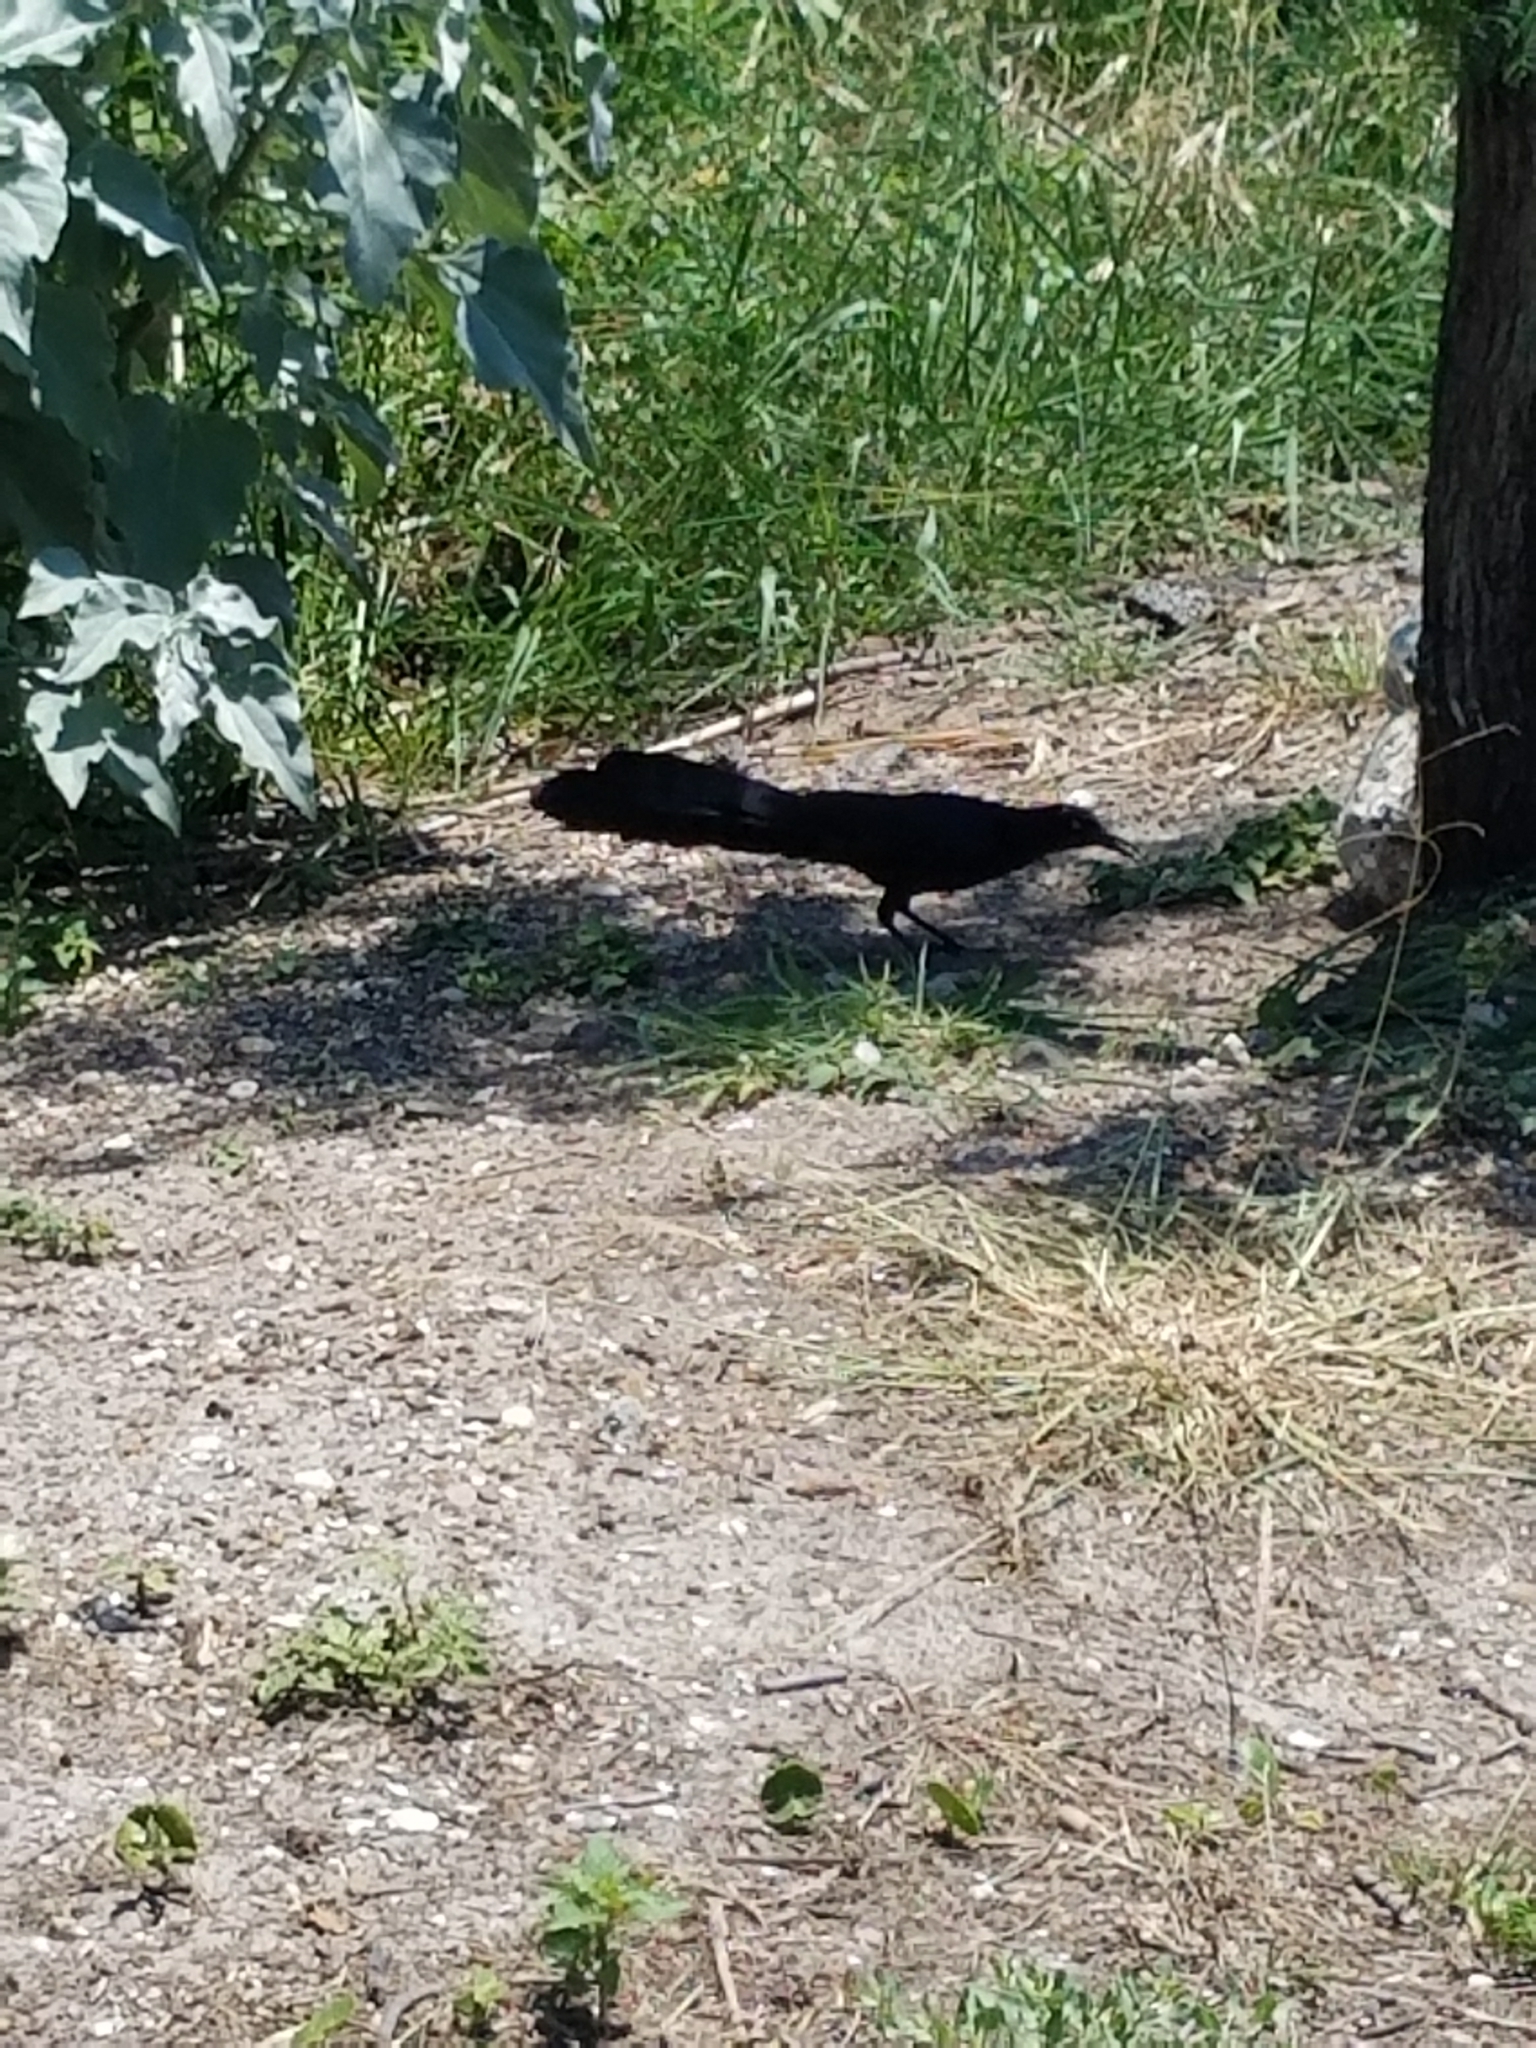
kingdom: Animalia
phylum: Chordata
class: Aves
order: Passeriformes
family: Icteridae
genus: Quiscalus
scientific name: Quiscalus mexicanus
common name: Great-tailed grackle
